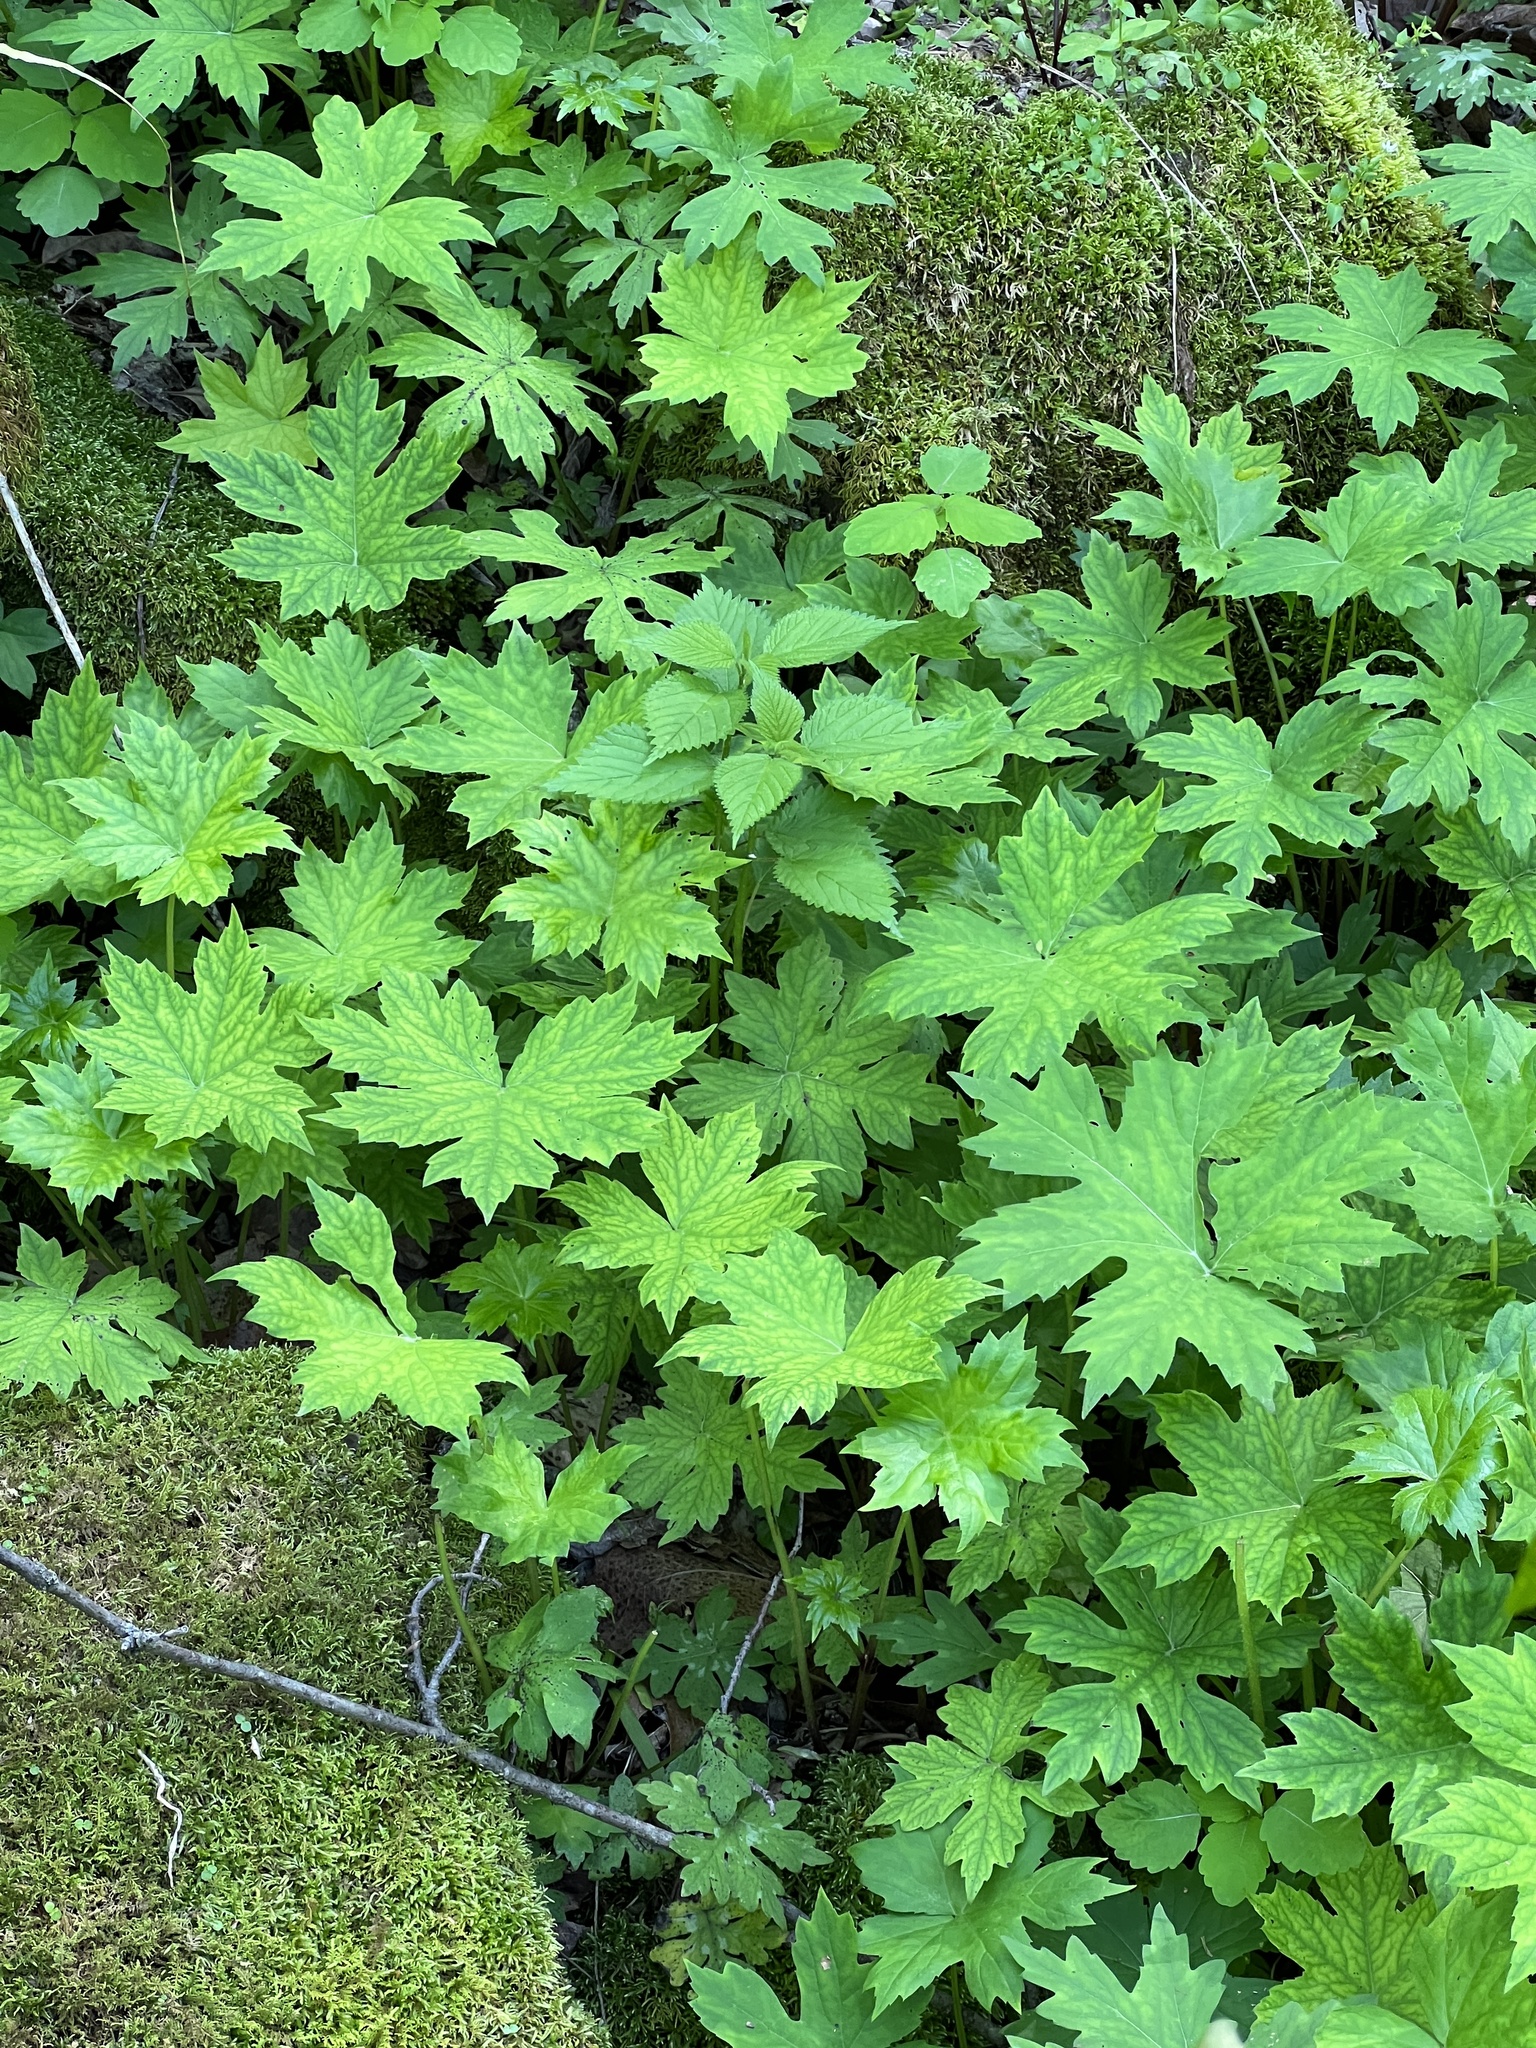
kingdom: Plantae
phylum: Tracheophyta
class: Magnoliopsida
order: Boraginales
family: Hydrophyllaceae
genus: Hydrophyllum
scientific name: Hydrophyllum canadense
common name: Canada waterleaf
